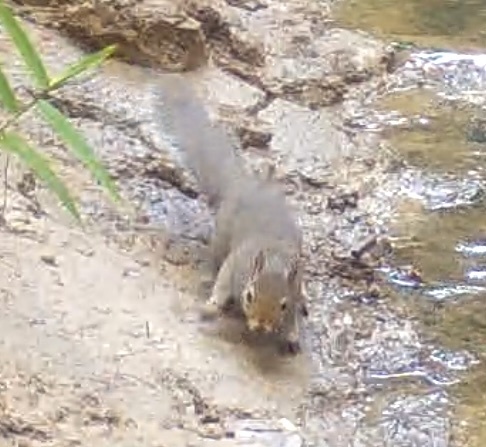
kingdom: Animalia
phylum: Chordata
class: Mammalia
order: Rodentia
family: Sciuridae
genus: Sciurus
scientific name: Sciurus carolinensis
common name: Eastern gray squirrel
